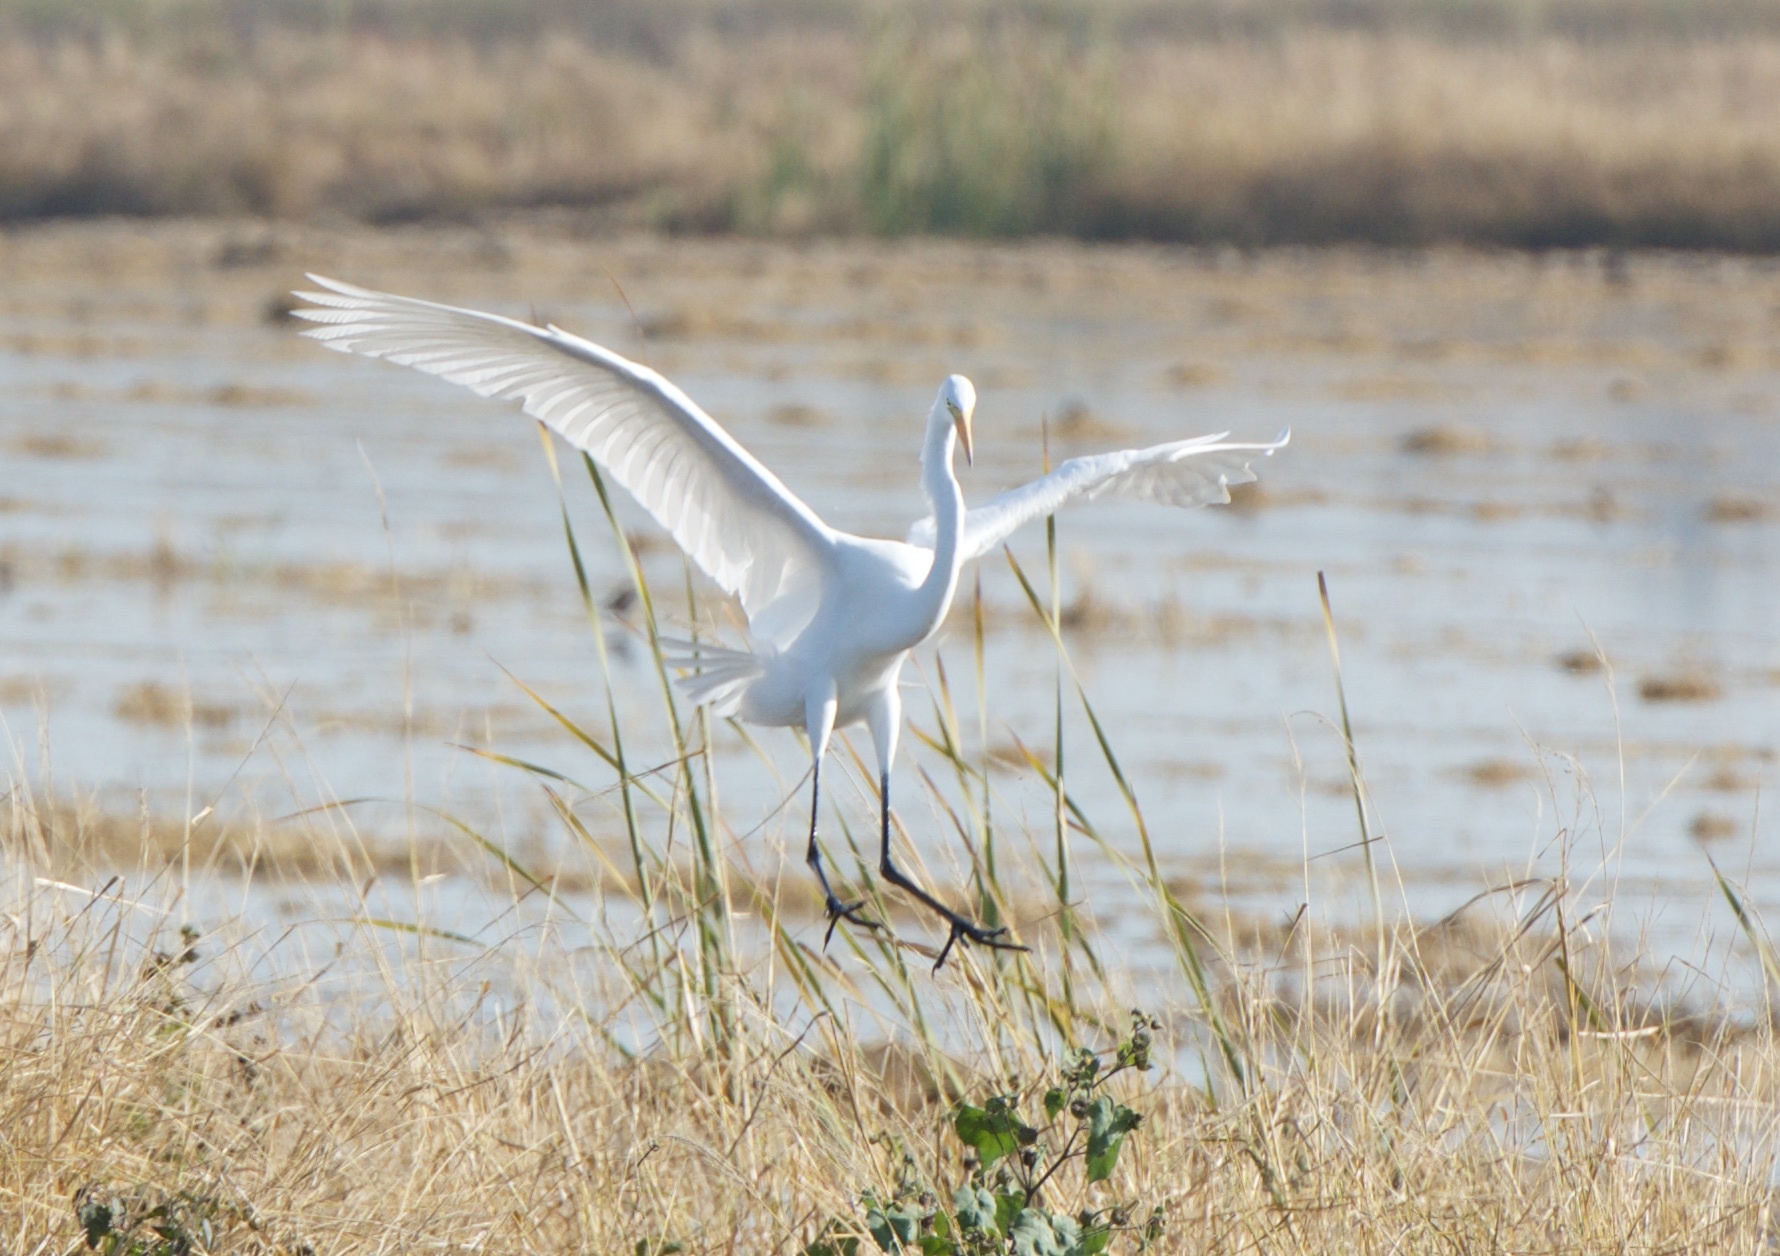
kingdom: Animalia
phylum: Chordata
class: Aves
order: Pelecaniformes
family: Ardeidae
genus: Ardea
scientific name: Ardea alba
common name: Great egret
